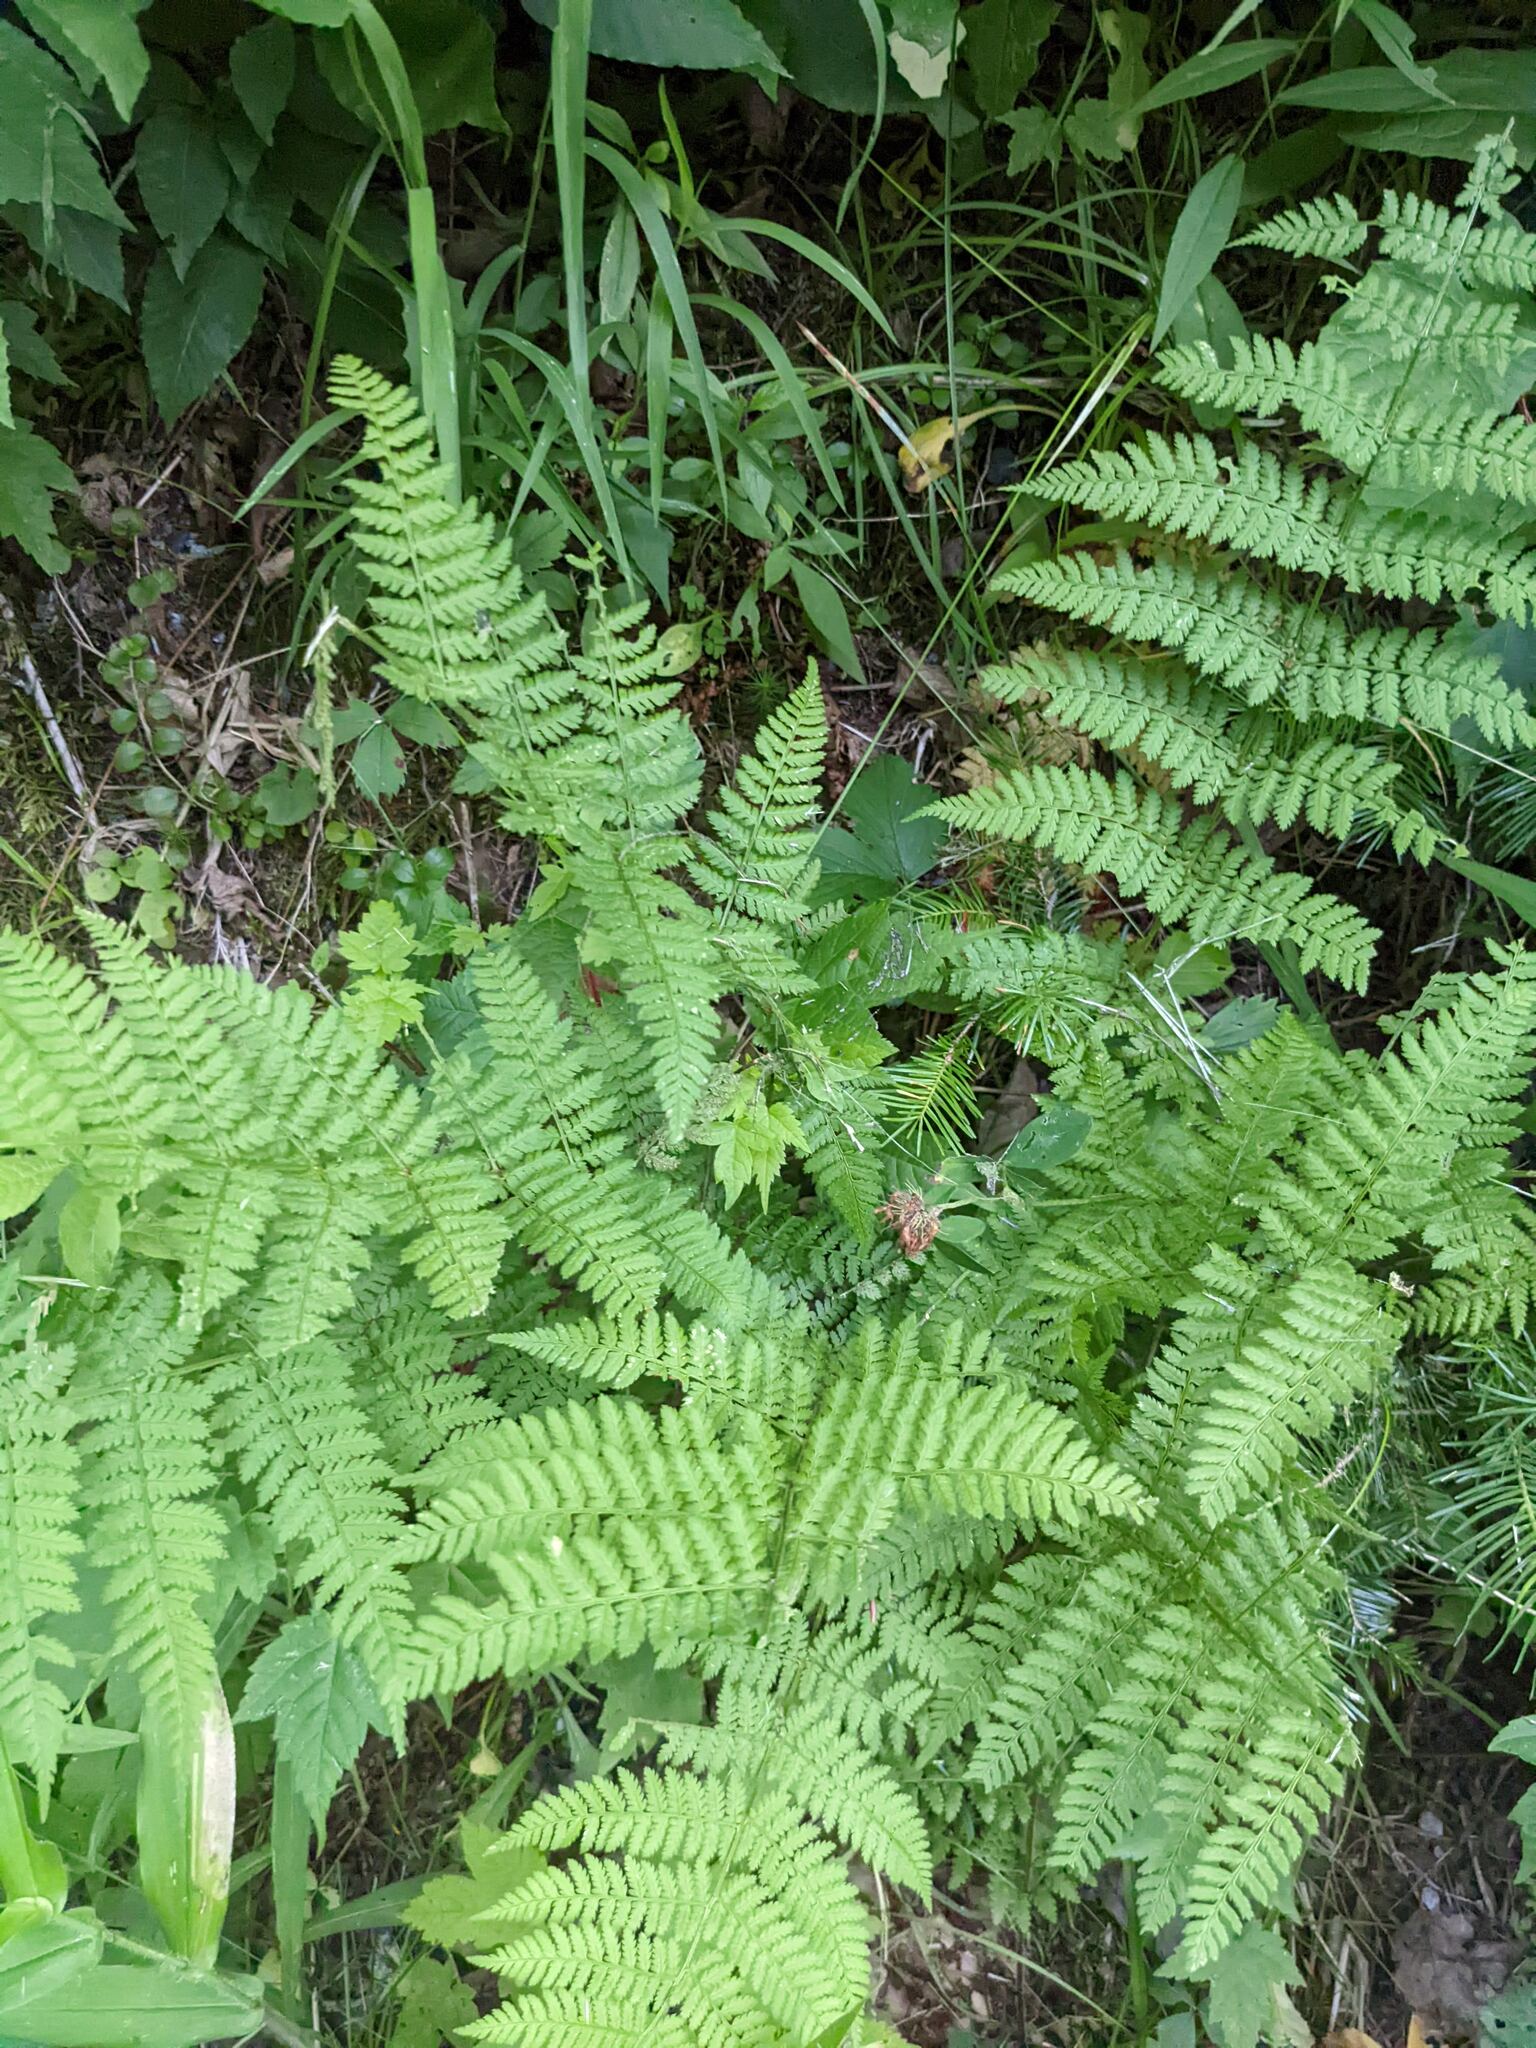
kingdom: Plantae
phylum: Tracheophyta
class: Polypodiopsida
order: Polypodiales
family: Dryopteridaceae
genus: Dryopteris
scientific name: Dryopteris intermedia
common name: Evergreen wood fern
